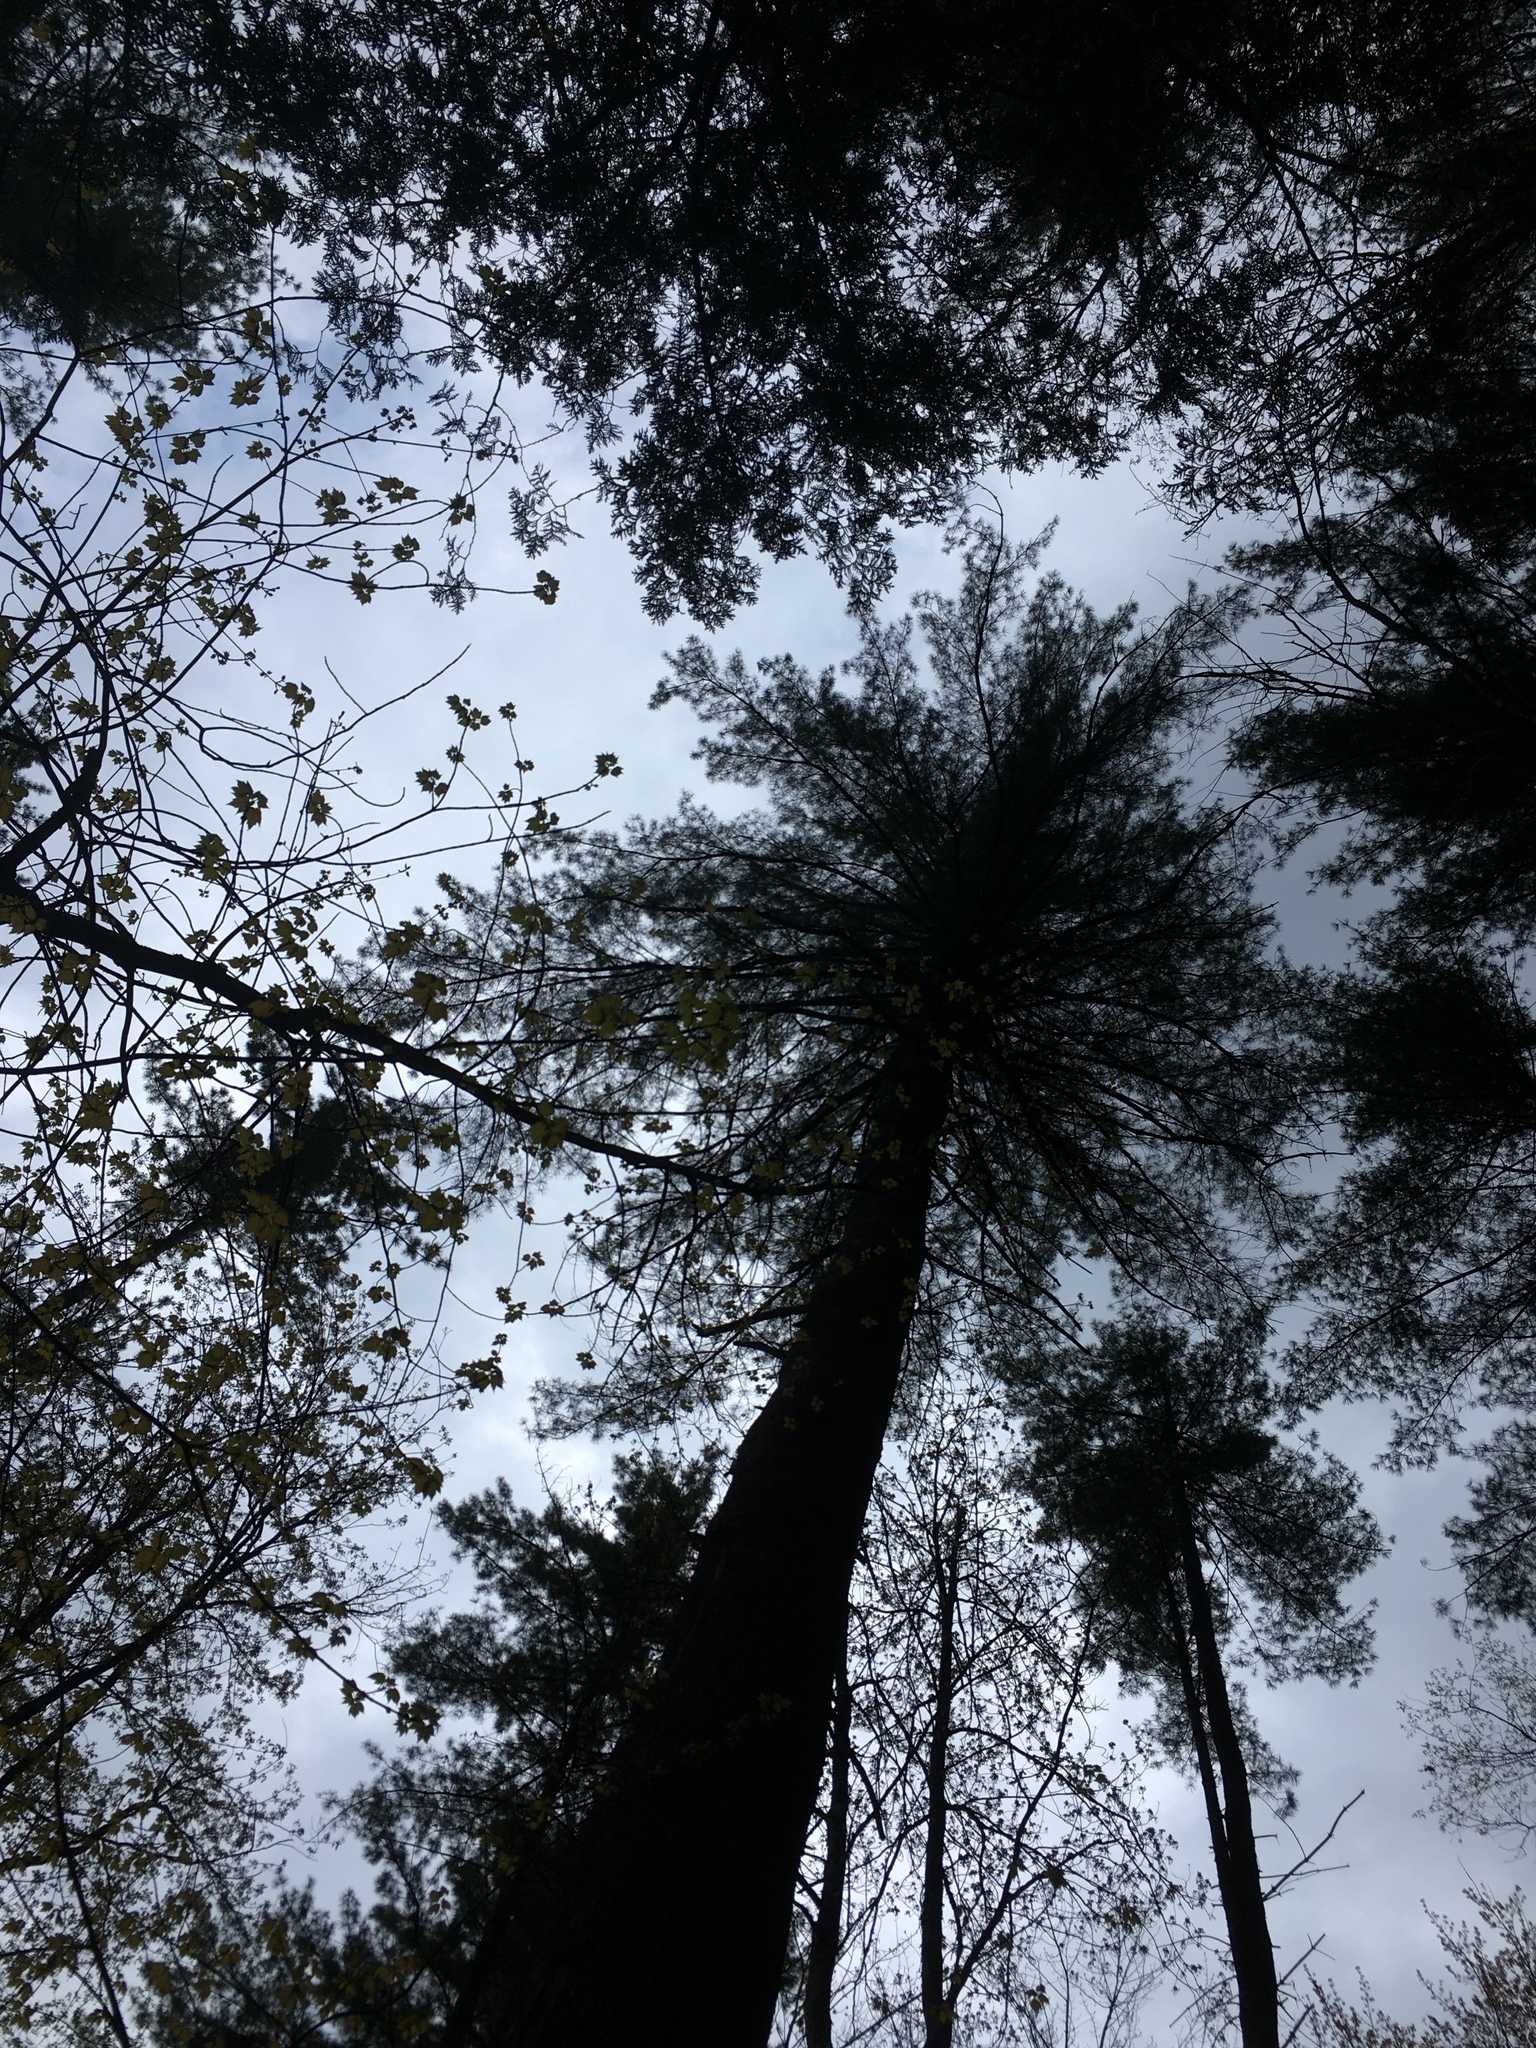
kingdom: Plantae
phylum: Tracheophyta
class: Pinopsida
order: Pinales
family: Pinaceae
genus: Pinus
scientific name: Pinus strobus
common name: Weymouth pine
